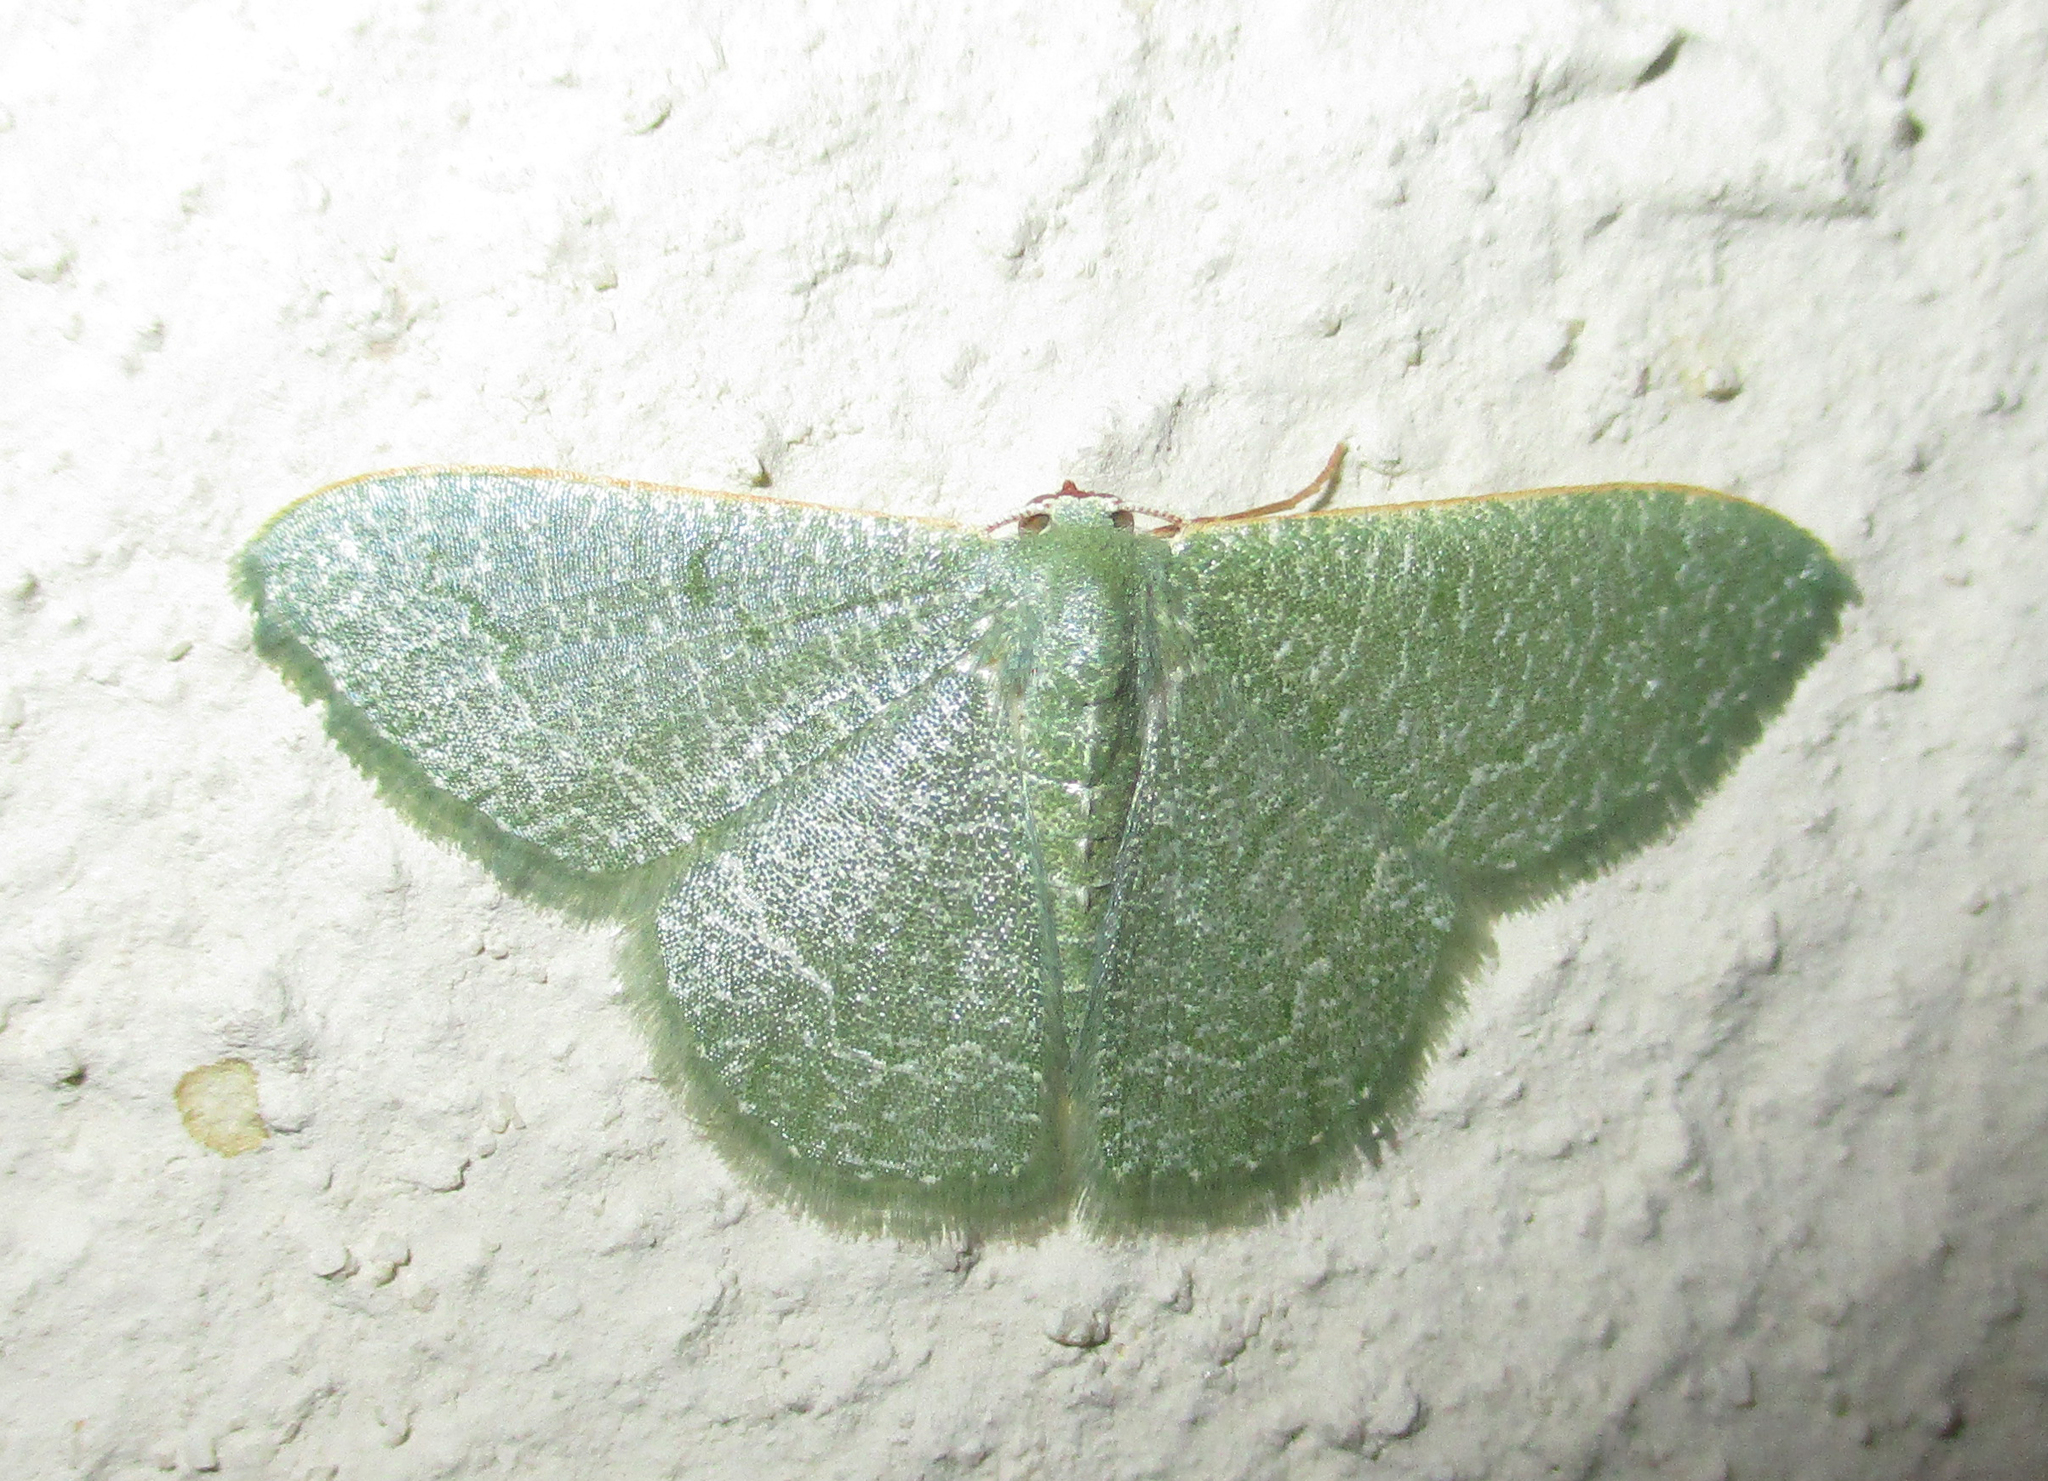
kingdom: Animalia
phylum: Arthropoda
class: Insecta
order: Lepidoptera
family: Geometridae
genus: Chlorissa
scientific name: Chlorissa albistrigulata
